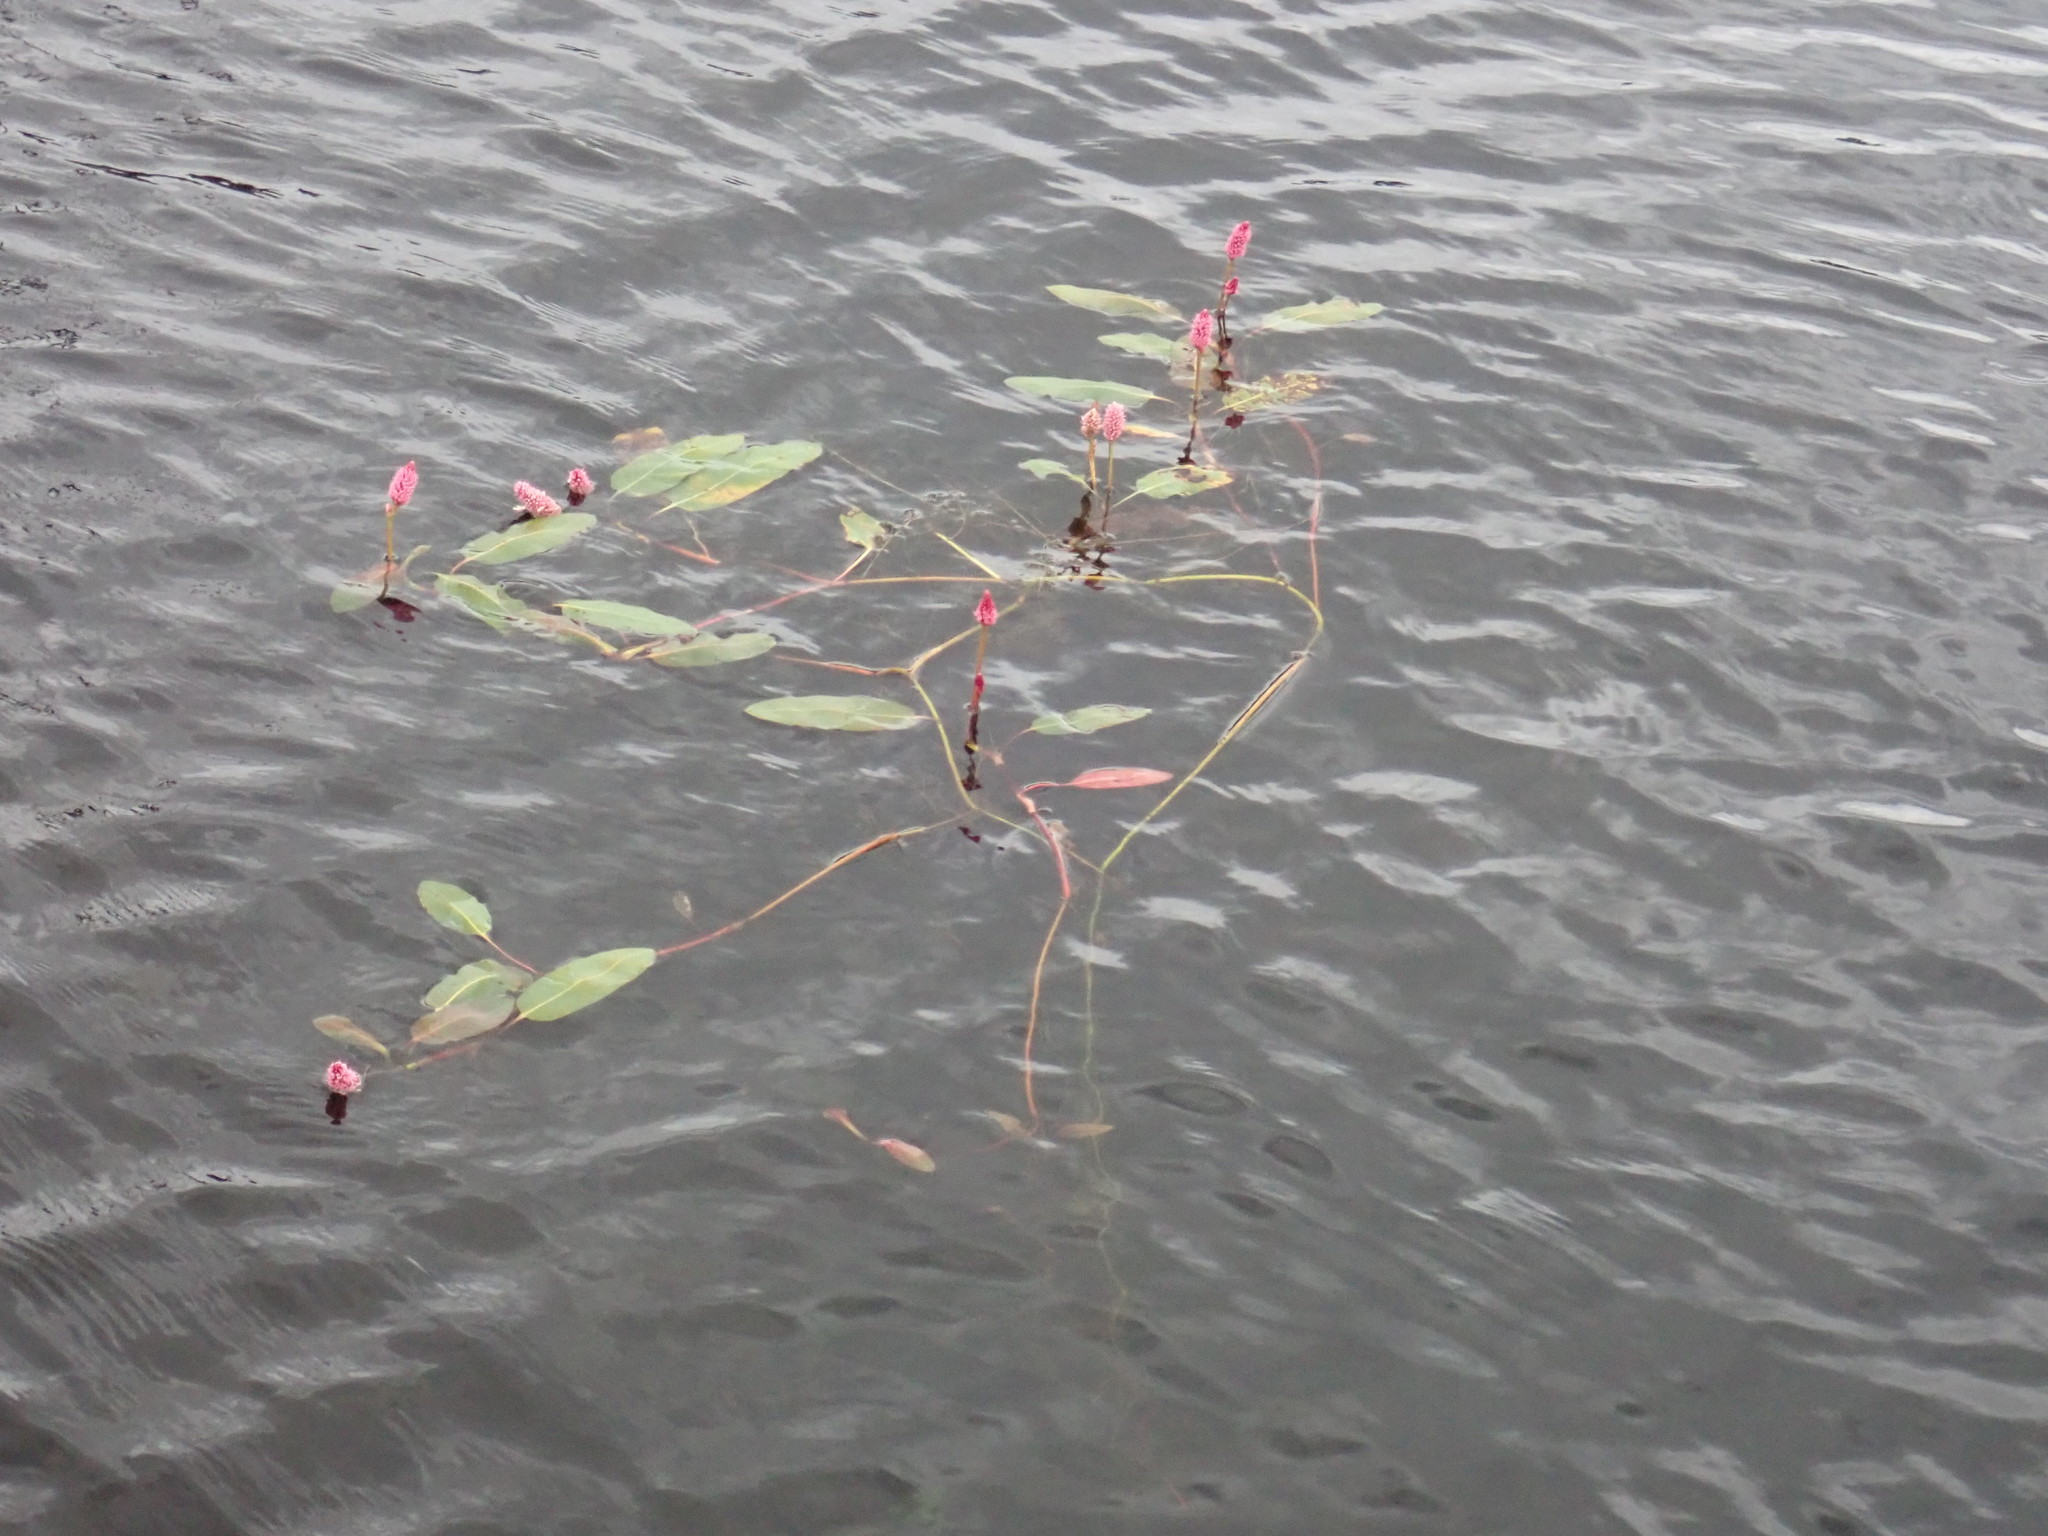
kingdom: Plantae
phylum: Tracheophyta
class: Magnoliopsida
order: Caryophyllales
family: Polygonaceae
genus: Persicaria
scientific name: Persicaria amphibia
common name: Amphibious bistort
